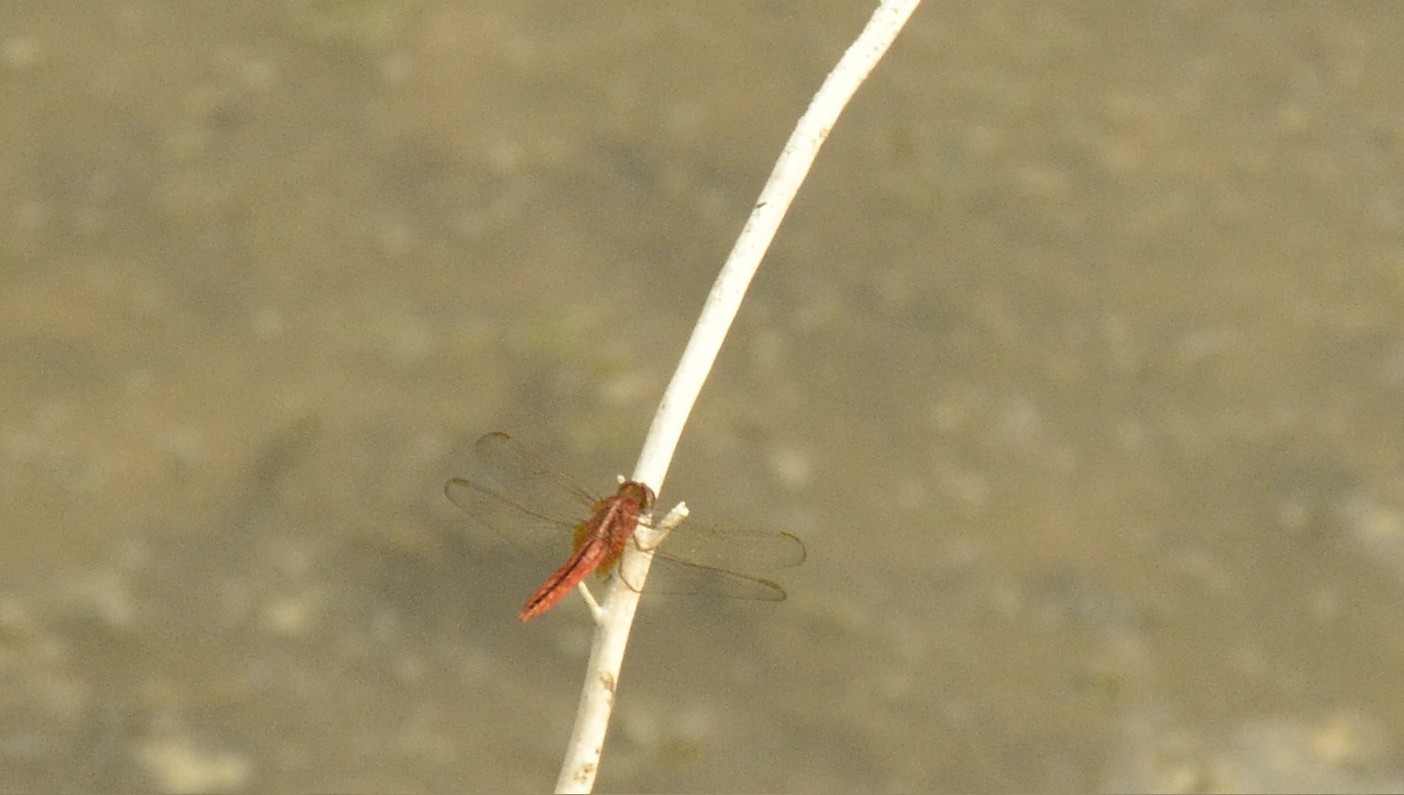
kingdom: Animalia
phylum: Arthropoda
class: Insecta
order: Odonata
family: Libellulidae
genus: Crocothemis
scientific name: Crocothemis servilia
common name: Scarlet skimmer
